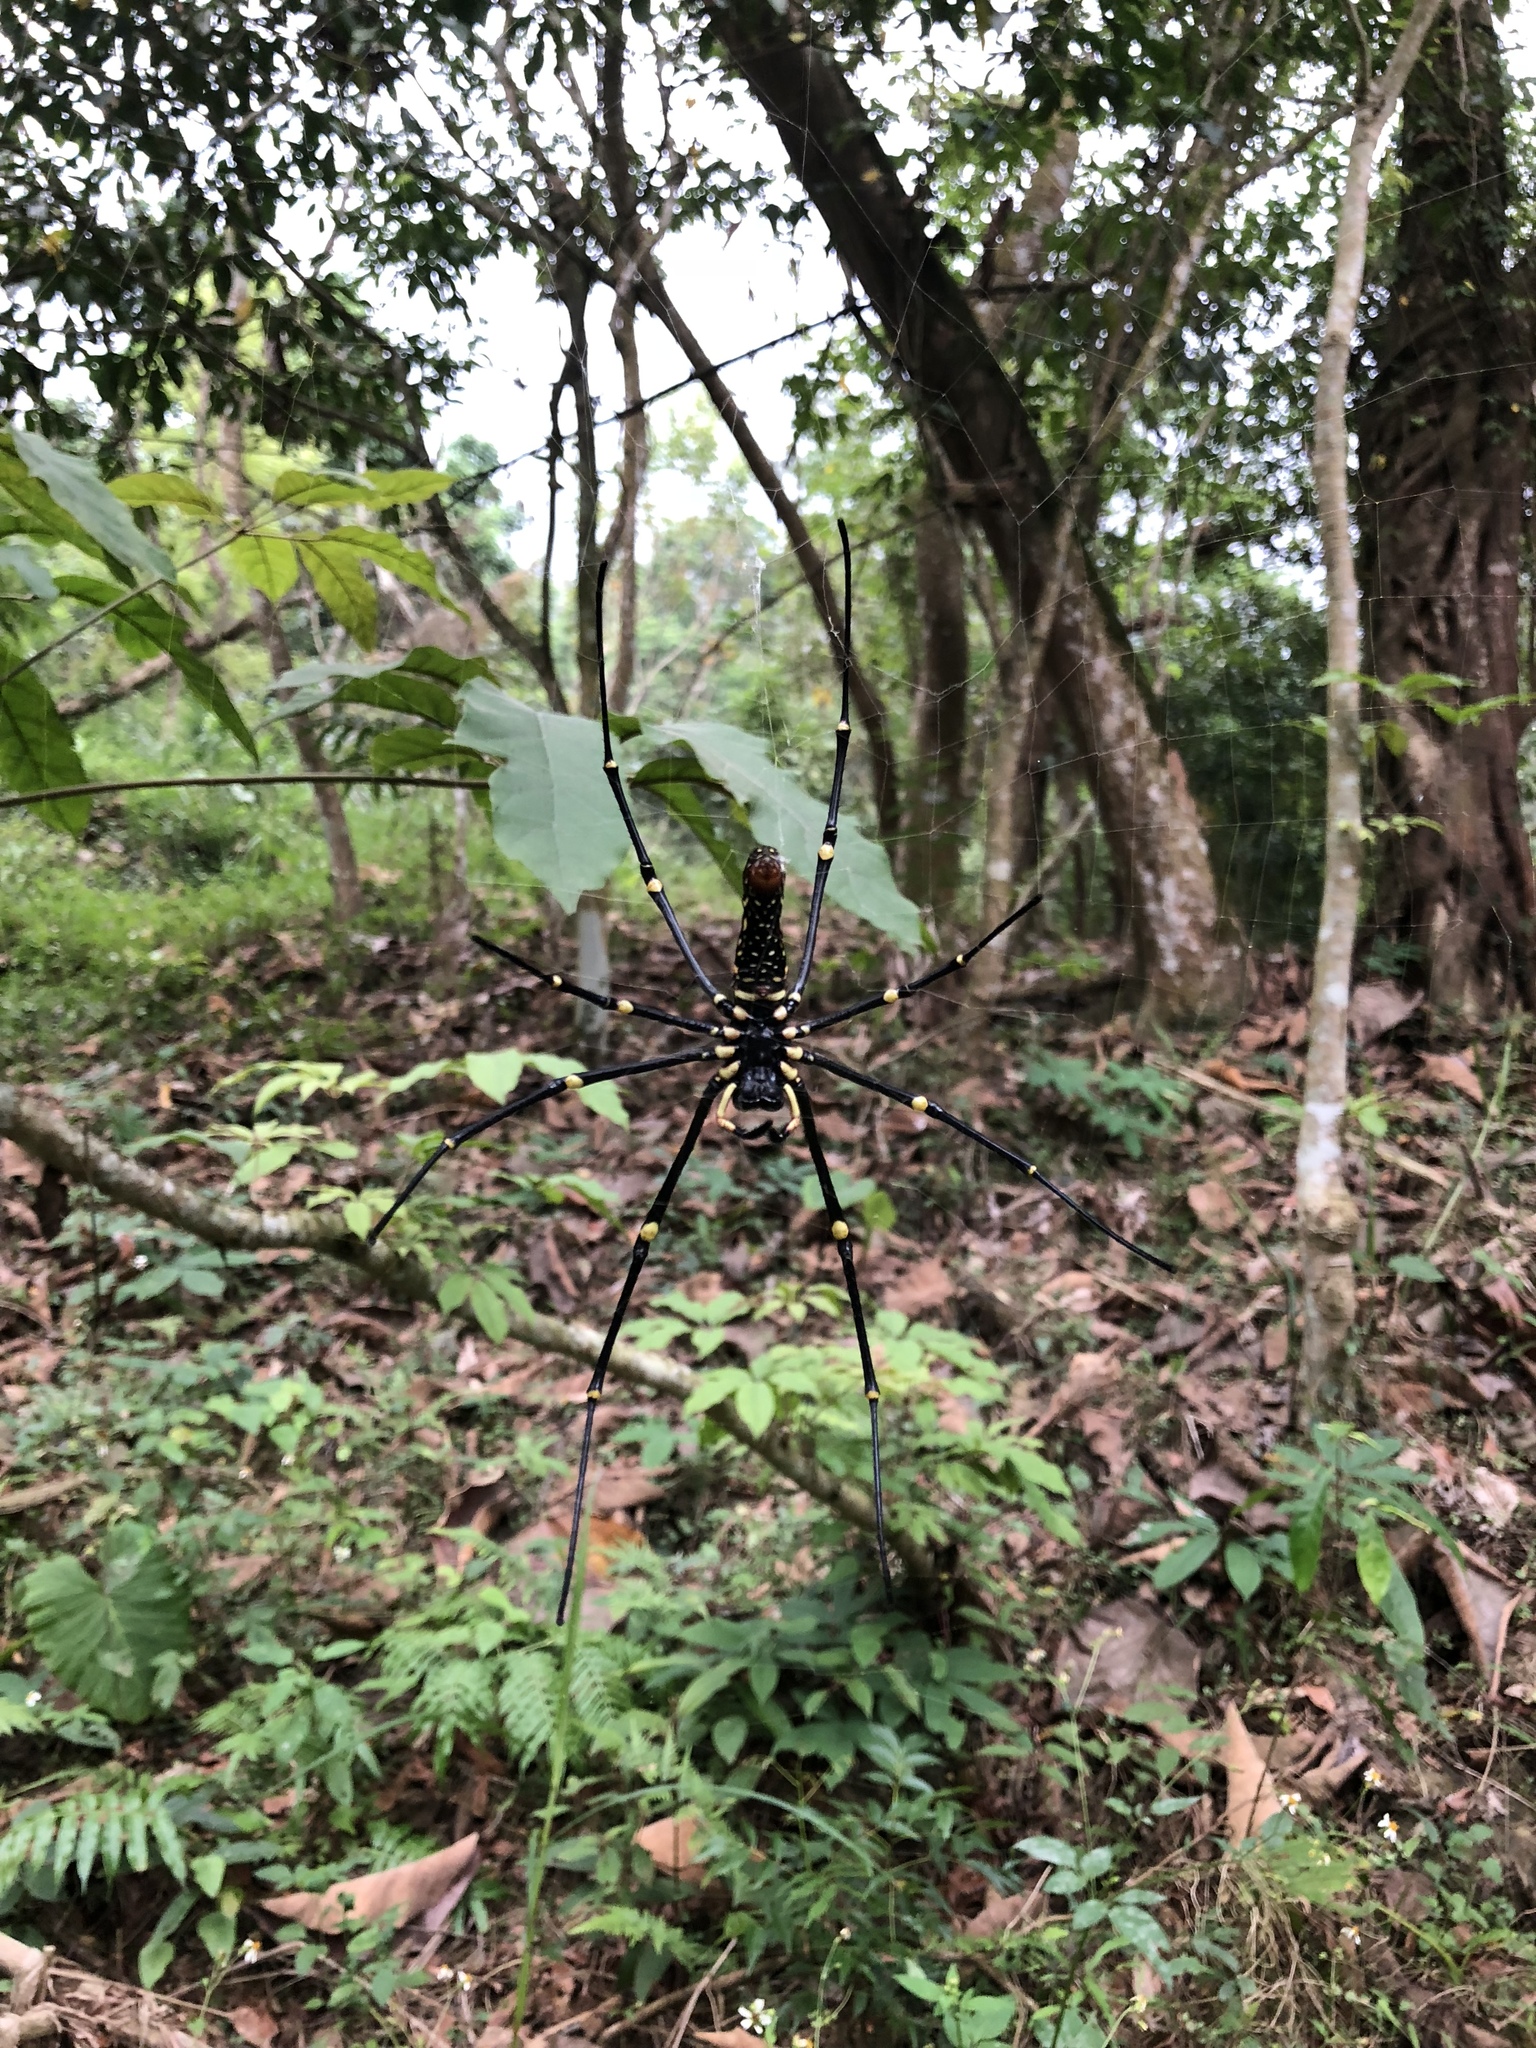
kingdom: Animalia
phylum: Arthropoda
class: Arachnida
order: Araneae
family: Araneidae
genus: Nephila
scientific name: Nephila pilipes
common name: Giant golden orb weaver
